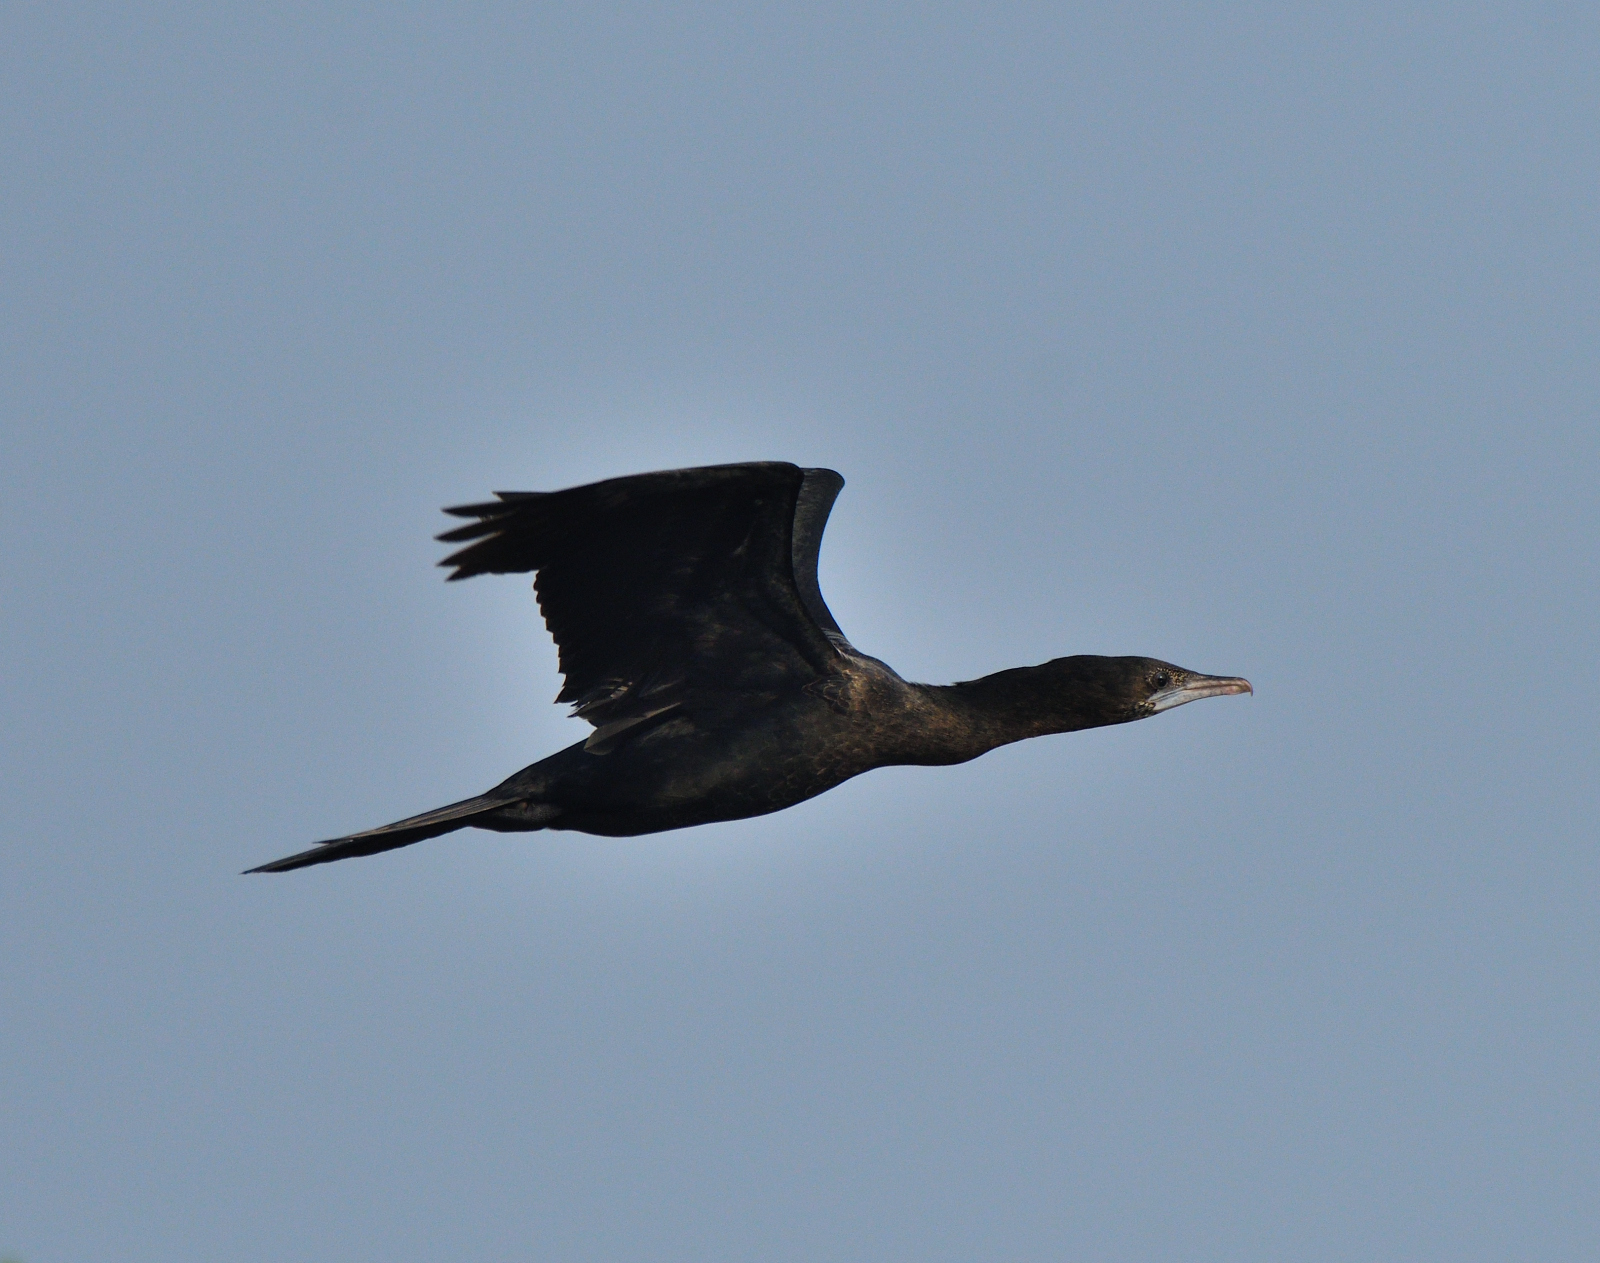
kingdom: Animalia
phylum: Chordata
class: Aves
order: Suliformes
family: Phalacrocoracidae
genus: Microcarbo
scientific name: Microcarbo niger
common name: Little cormorant
